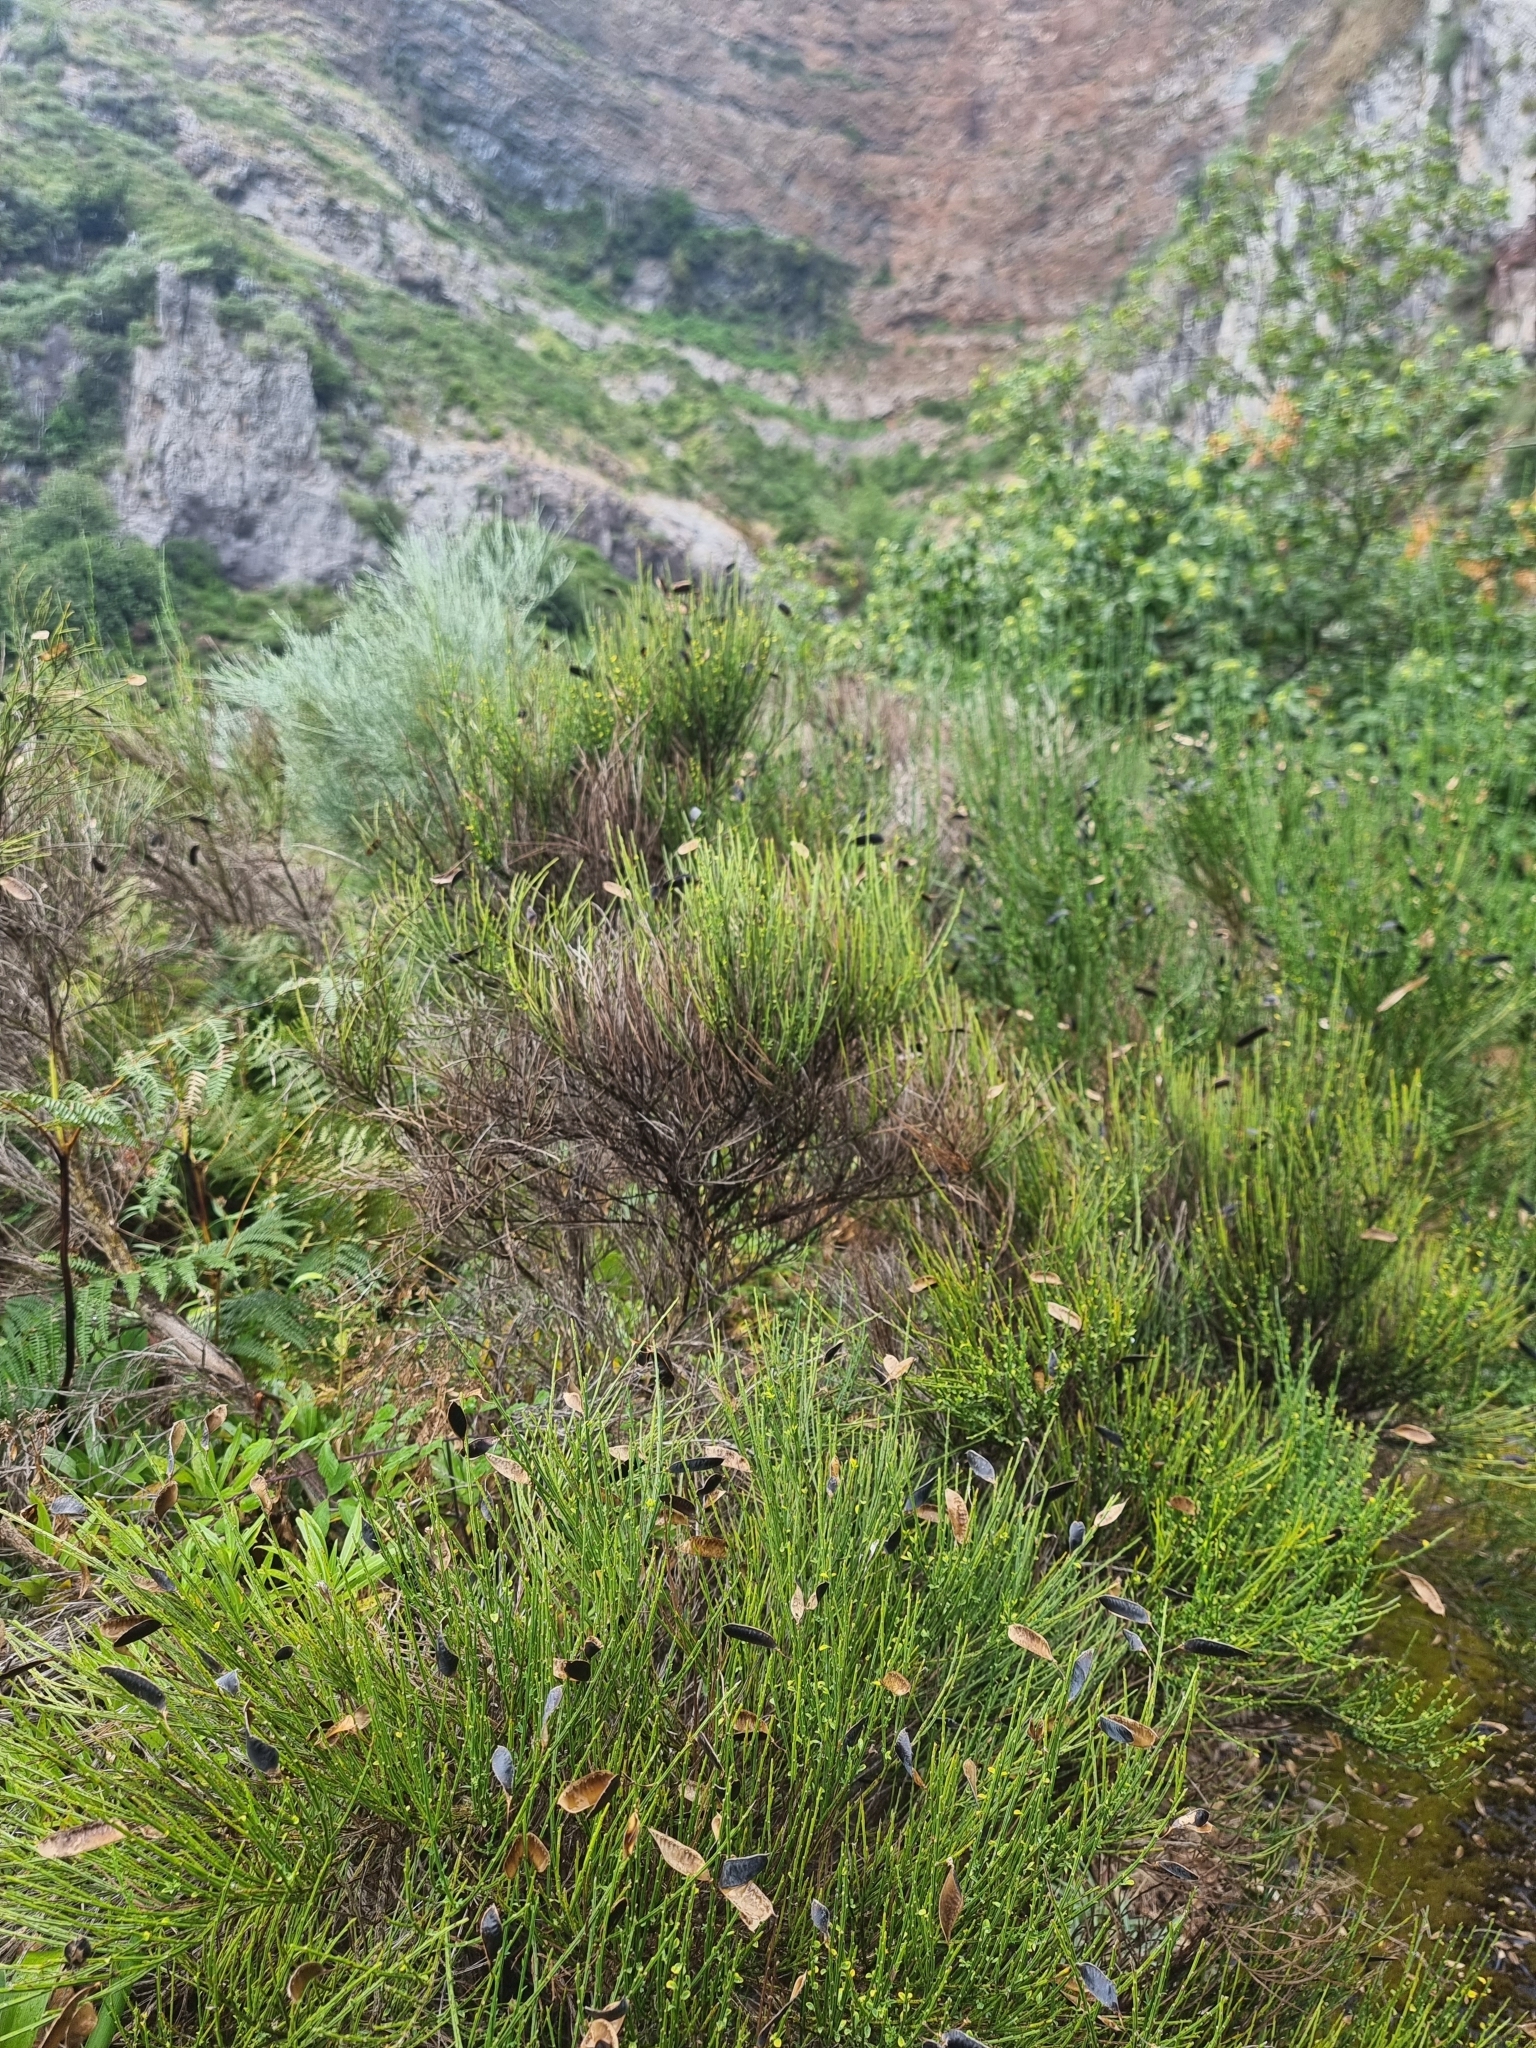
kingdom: Plantae
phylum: Tracheophyta
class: Magnoliopsida
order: Fabales
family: Fabaceae
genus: Cytisus
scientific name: Cytisus scoparius
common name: Scotch broom
